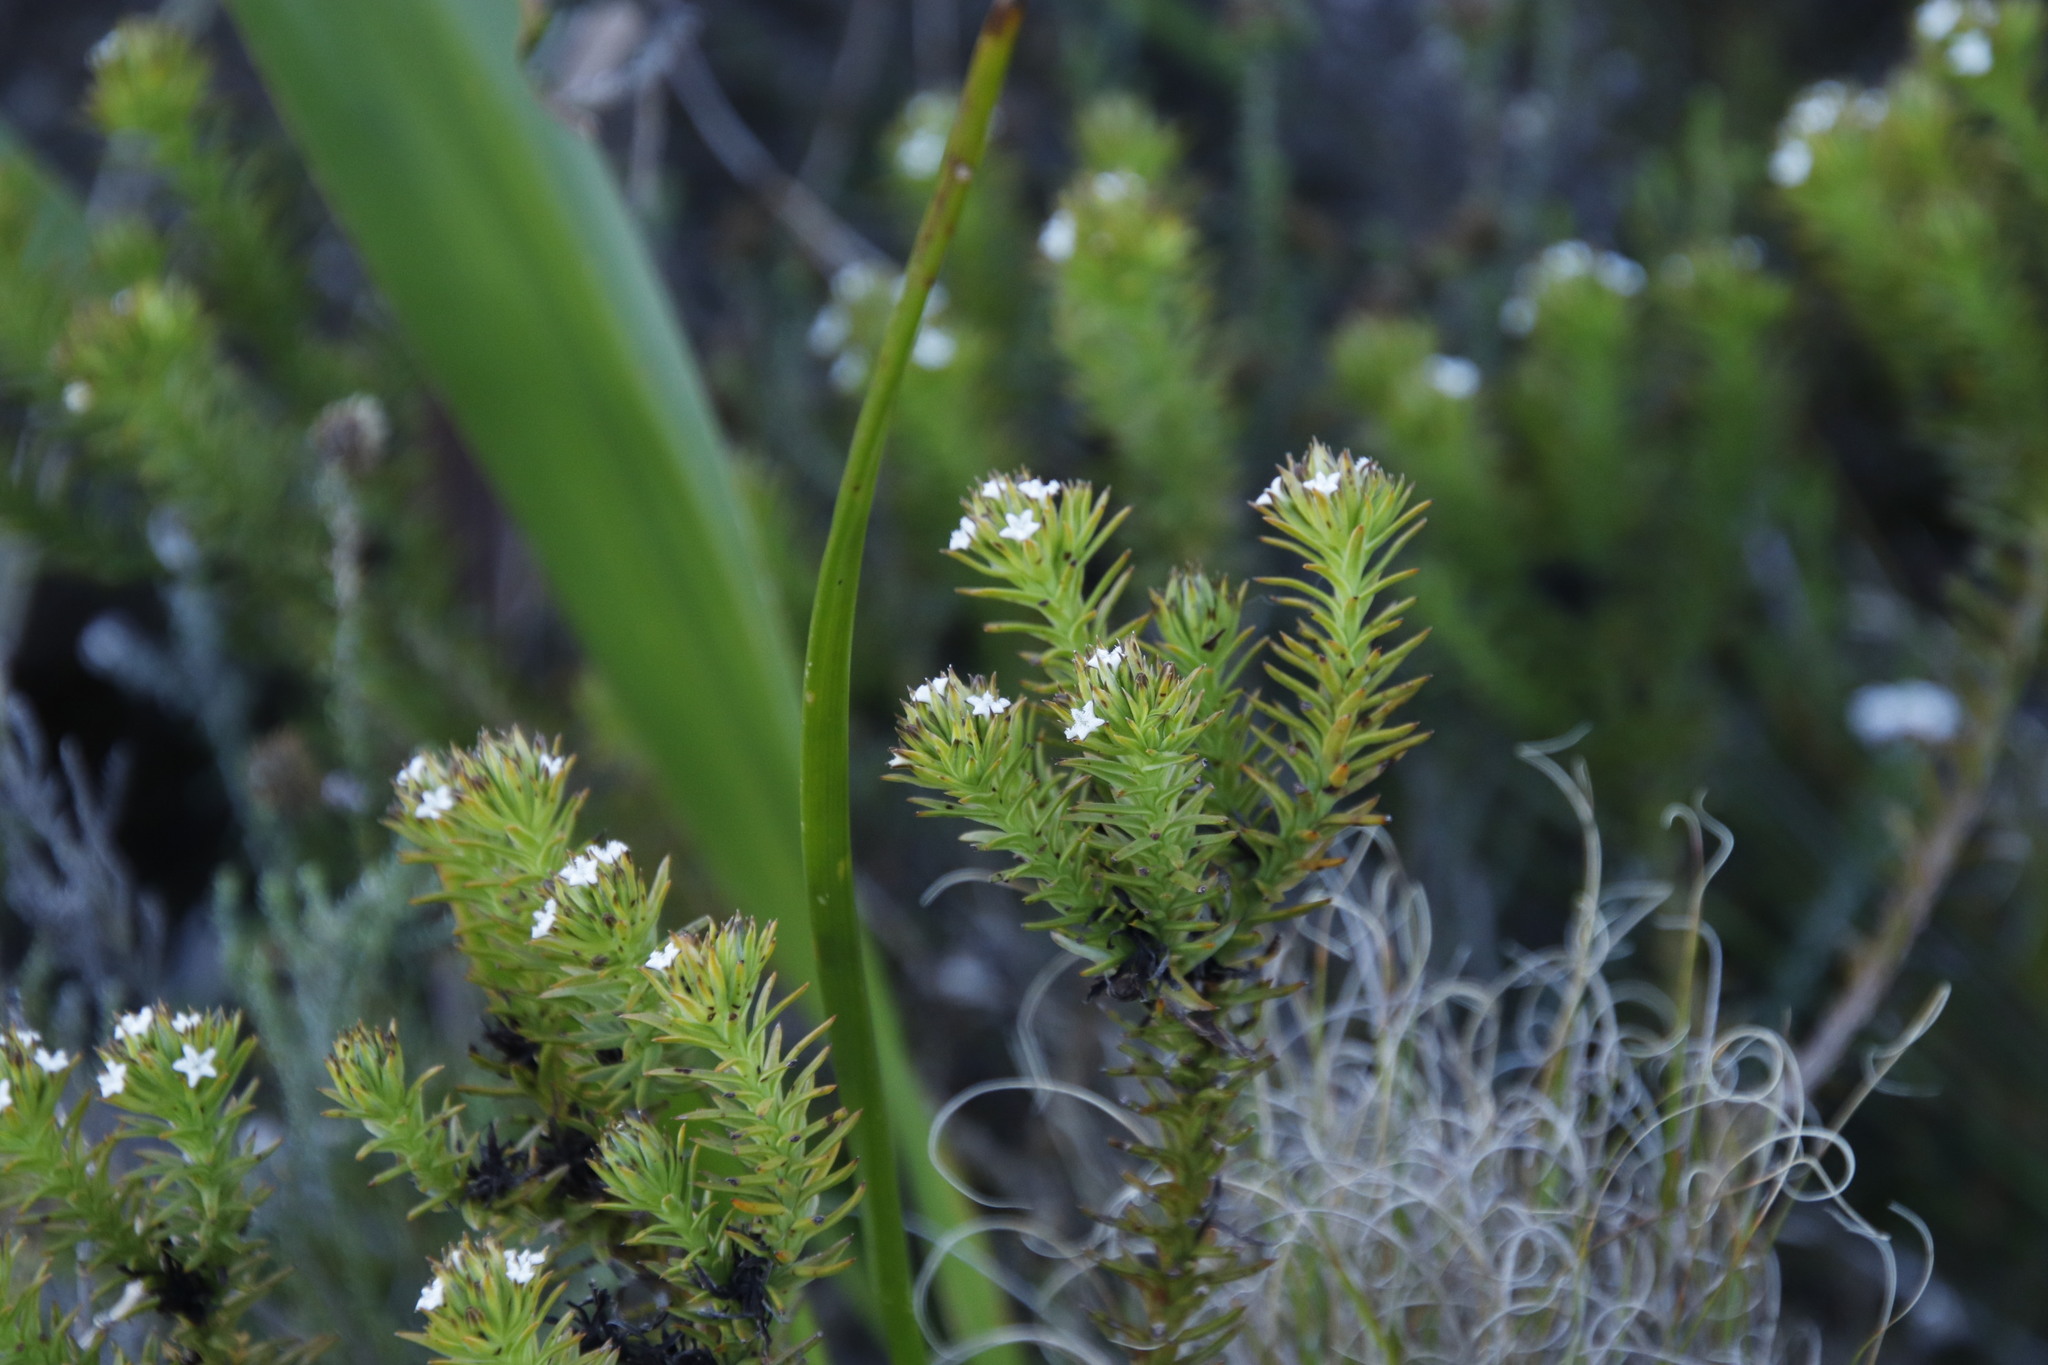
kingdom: Plantae
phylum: Tracheophyta
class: Magnoliopsida
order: Santalales
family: Thesiaceae
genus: Thesium
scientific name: Thesium viridifolium
